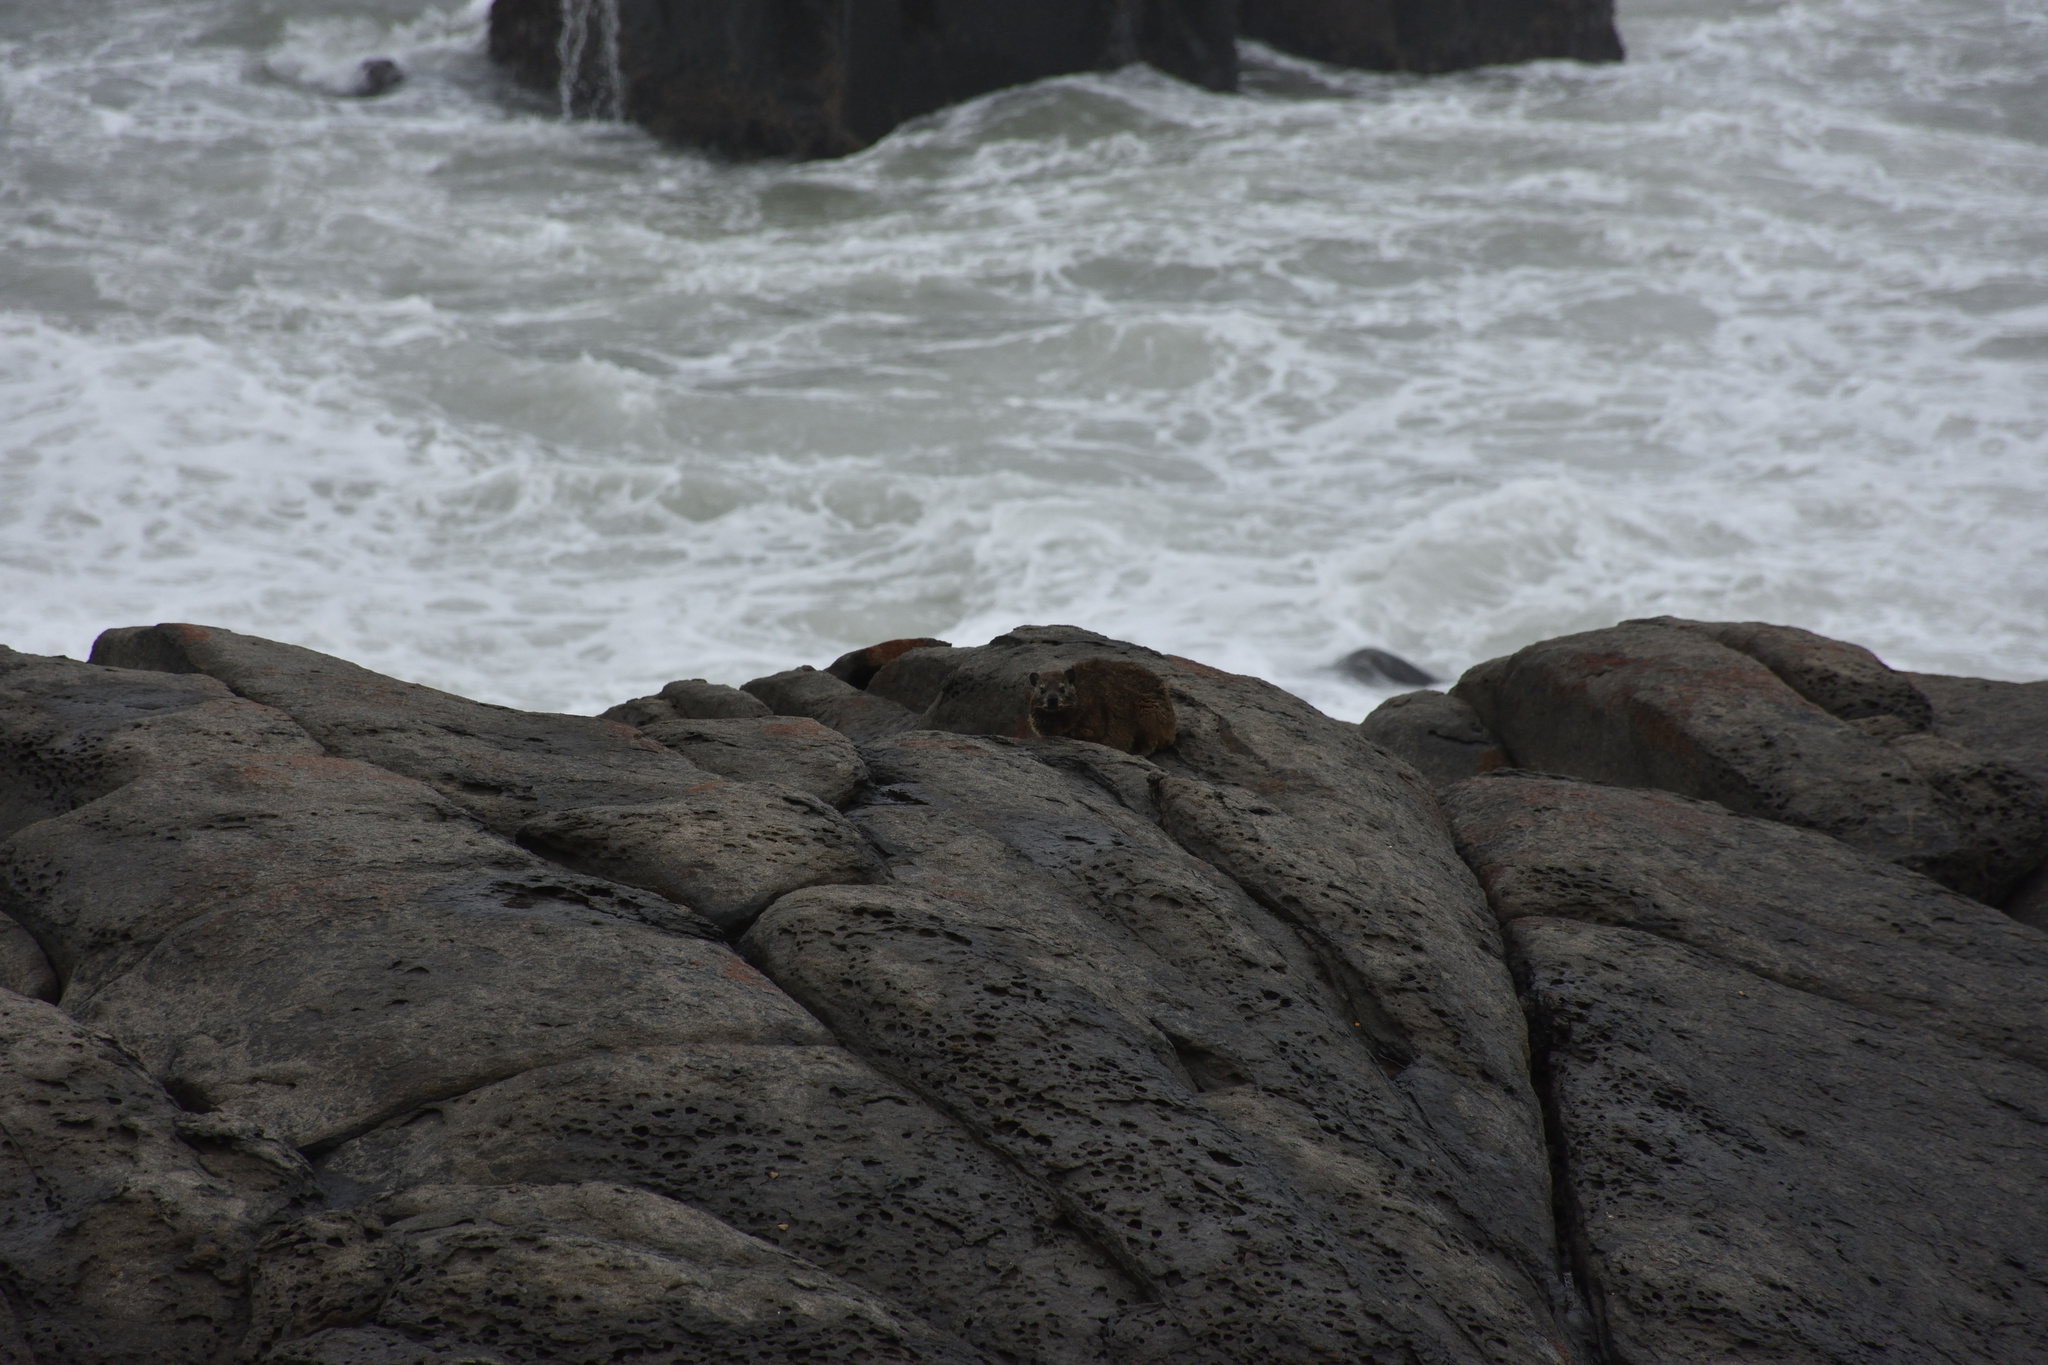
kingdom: Animalia
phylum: Chordata
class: Mammalia
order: Hyracoidea
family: Procaviidae
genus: Procavia
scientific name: Procavia capensis
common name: Rock hyrax
